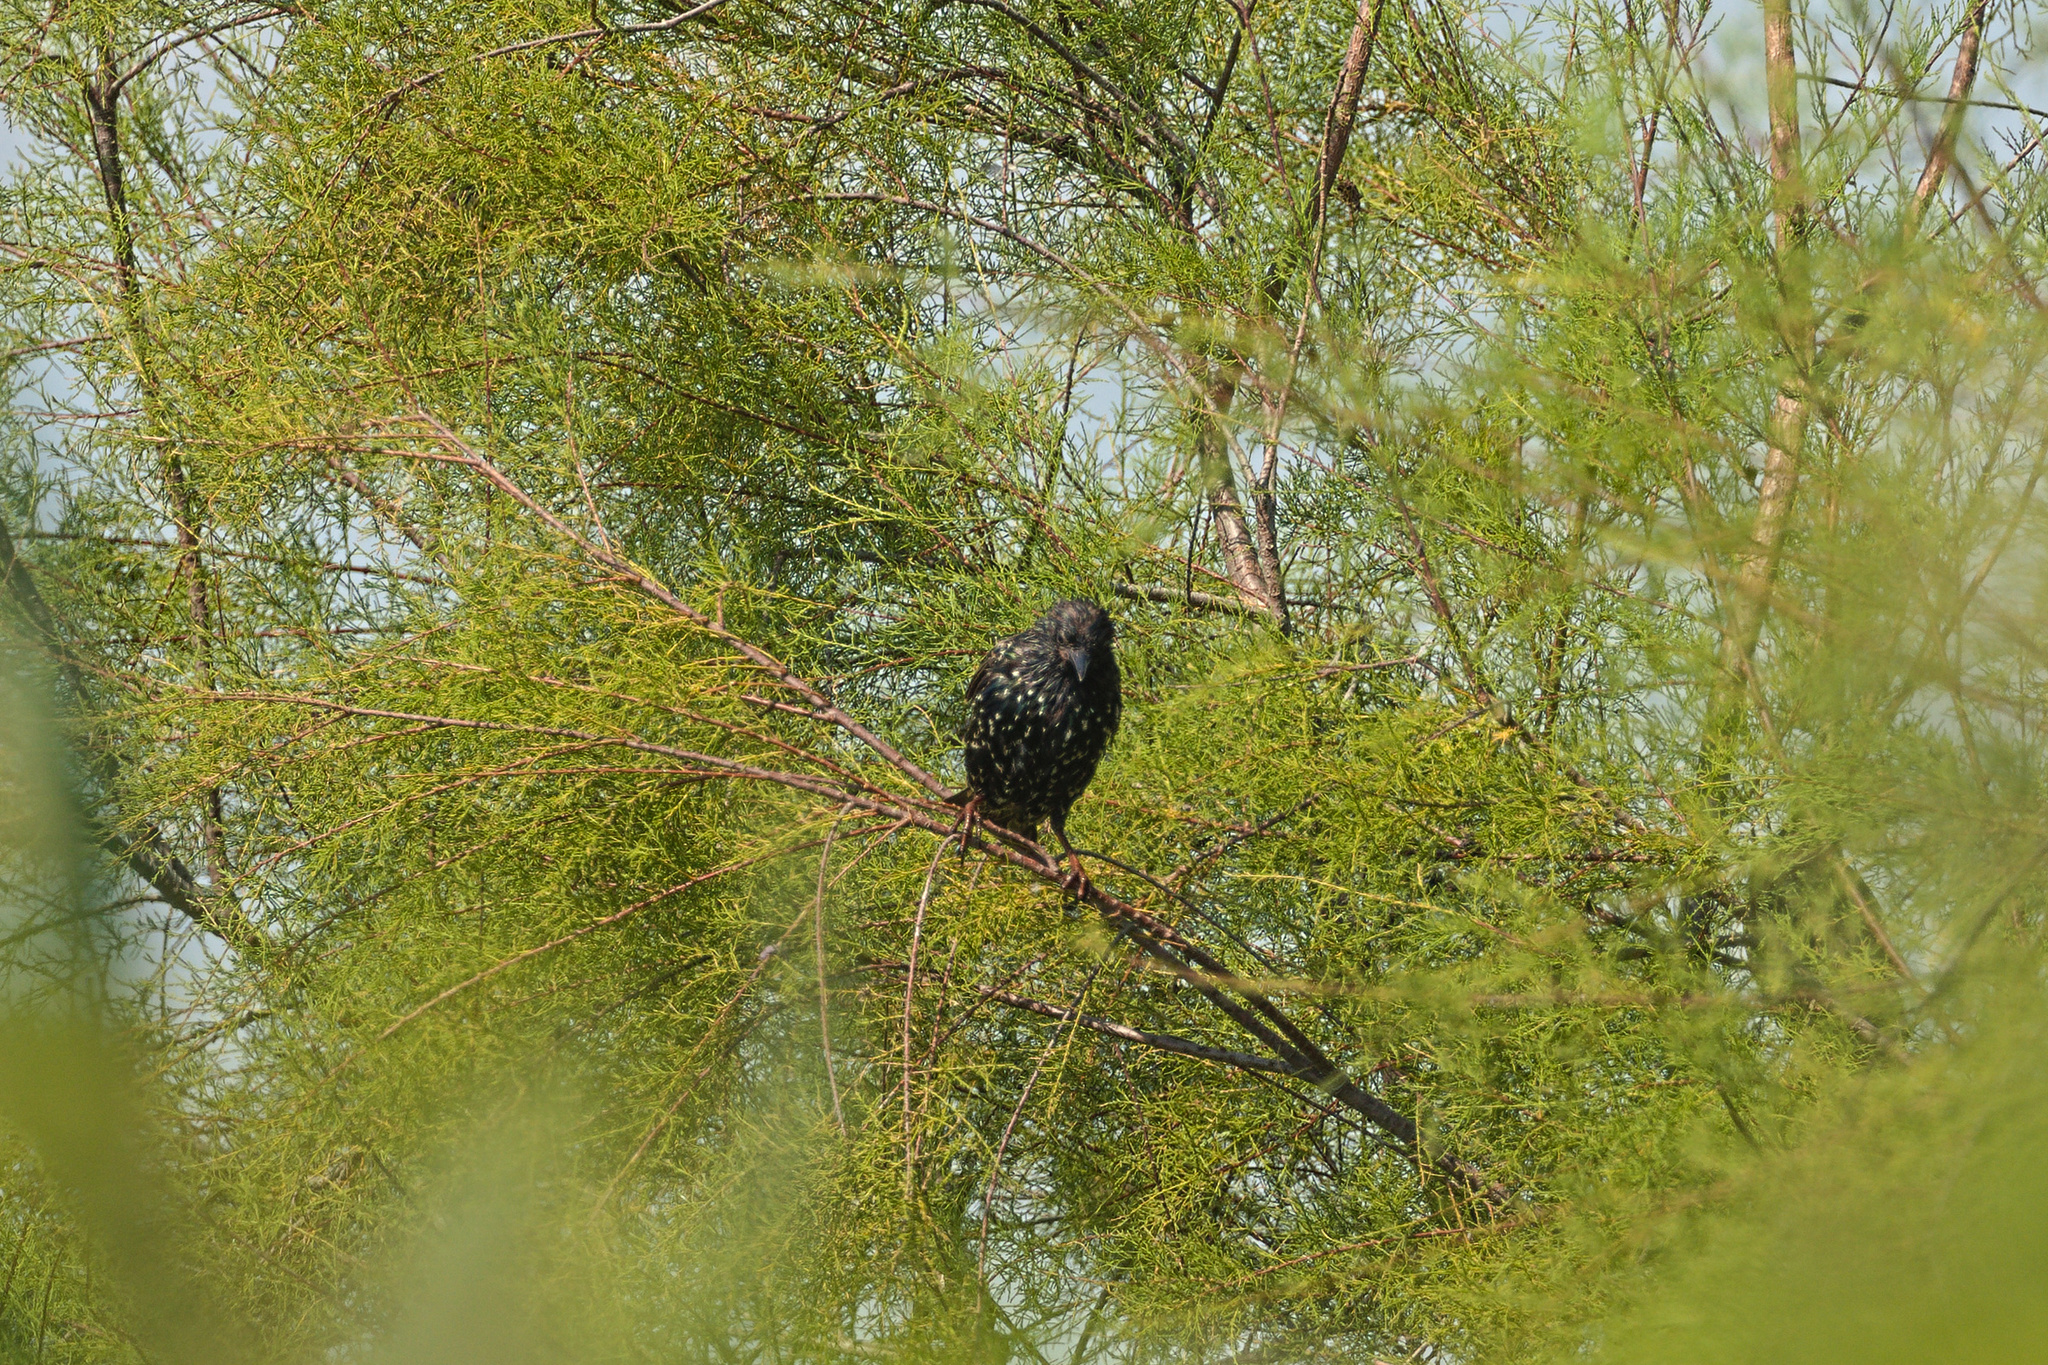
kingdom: Animalia
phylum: Chordata
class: Aves
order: Passeriformes
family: Sturnidae
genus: Sturnus
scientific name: Sturnus vulgaris
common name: Common starling
